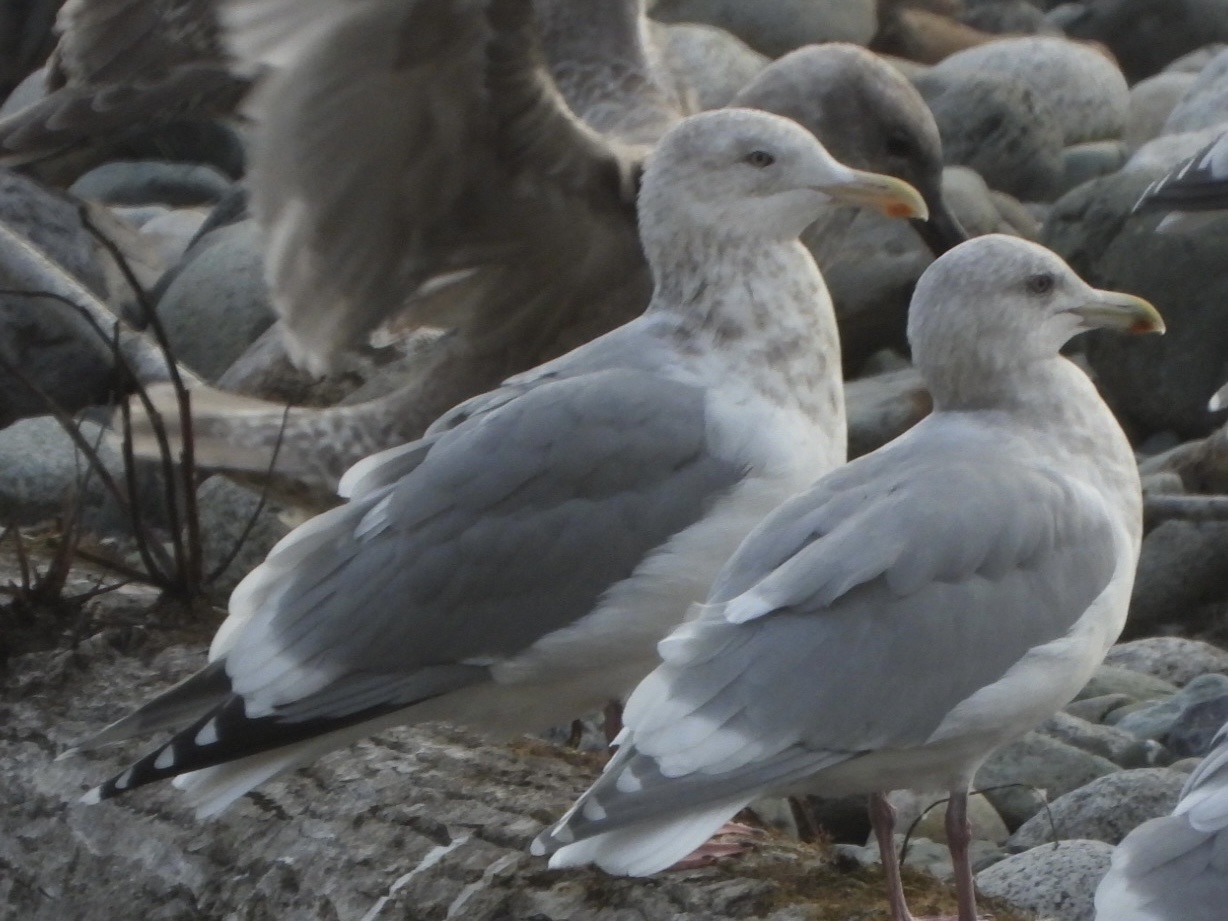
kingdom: Animalia
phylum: Chordata
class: Aves
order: Charadriiformes
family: Laridae
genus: Larus
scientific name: Larus
